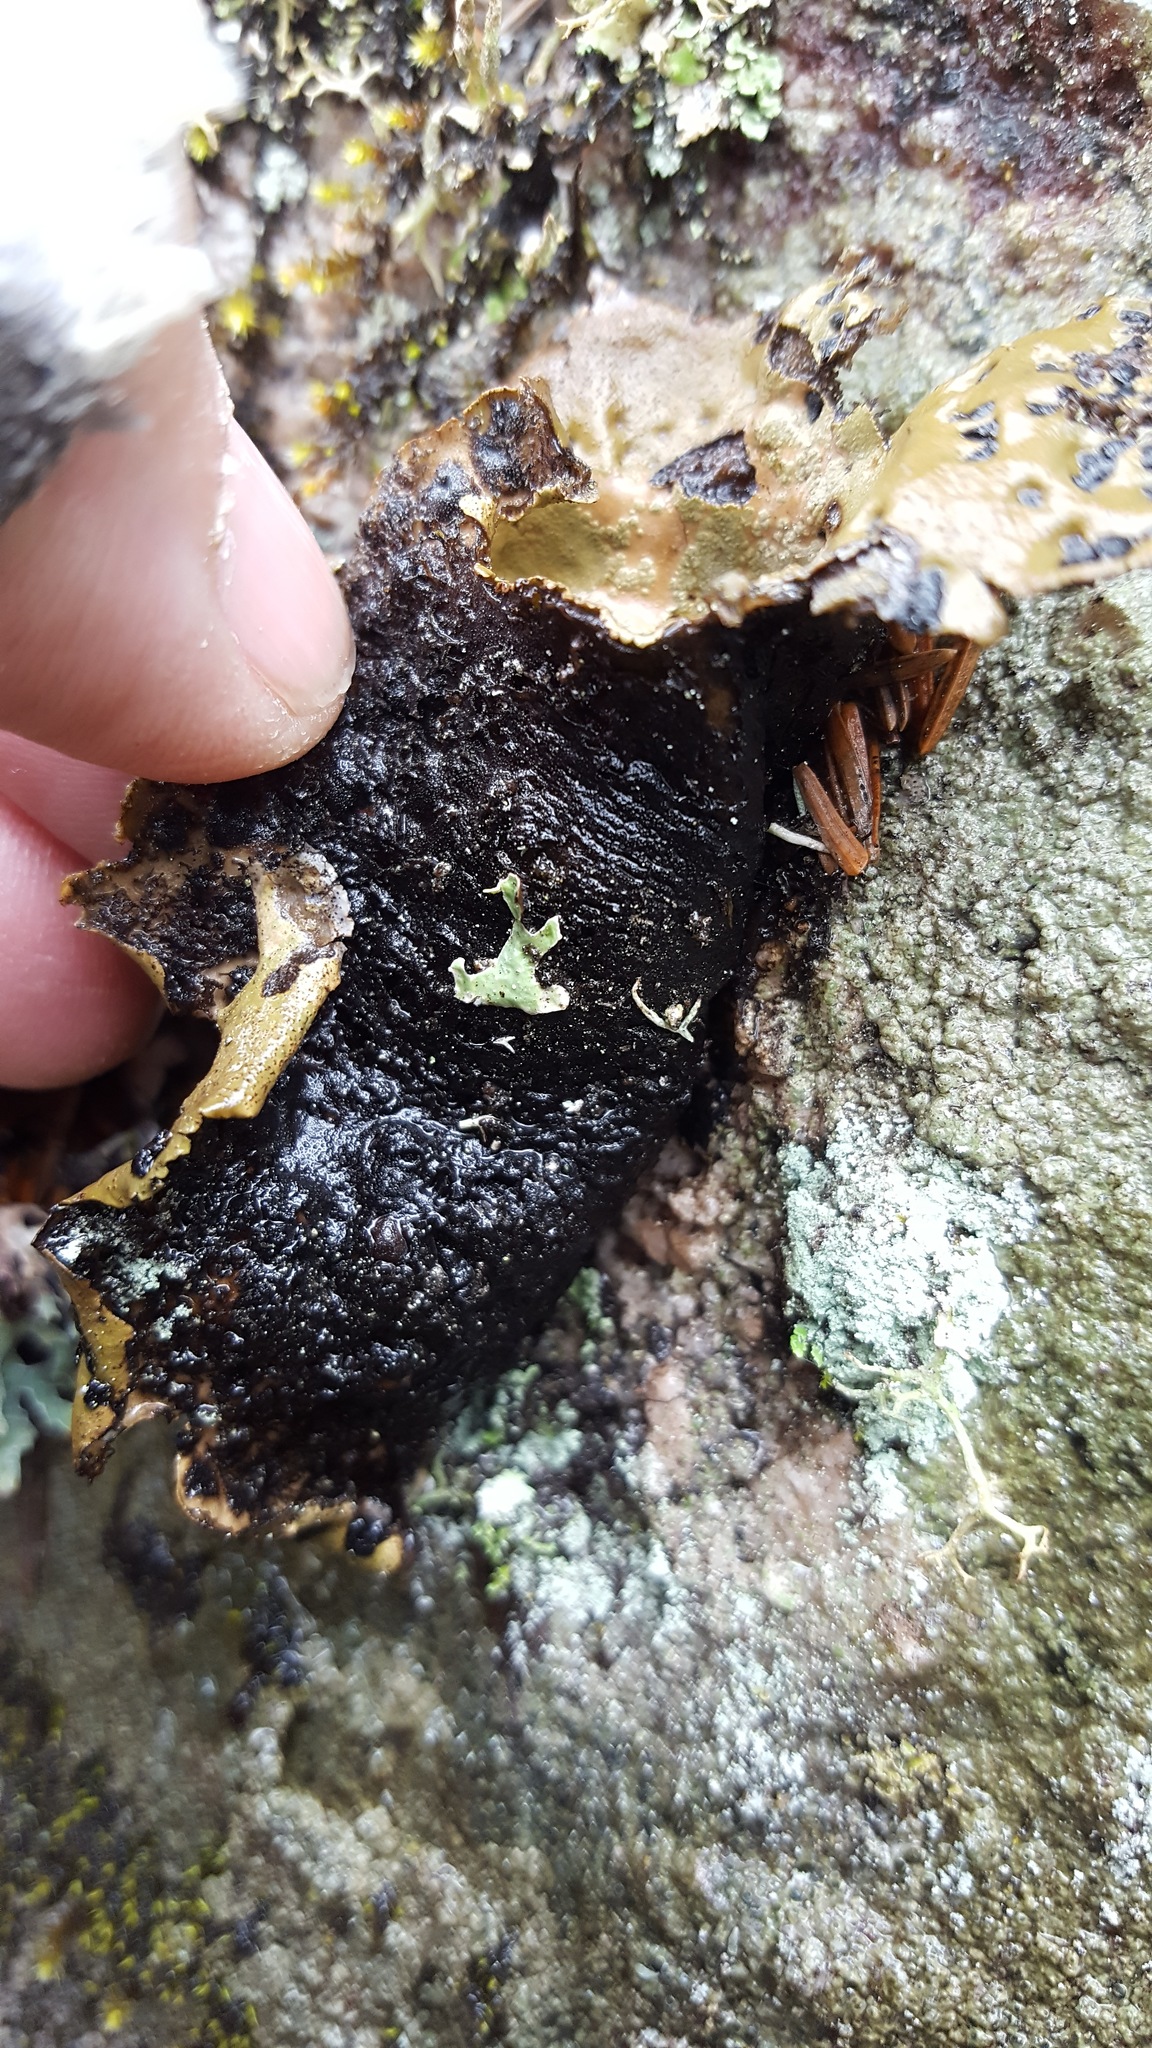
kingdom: Fungi
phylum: Ascomycota
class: Lecanoromycetes
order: Umbilicariales
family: Umbilicariaceae
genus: Umbilicaria
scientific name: Umbilicaria mammulata
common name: Smooth rock tripe
